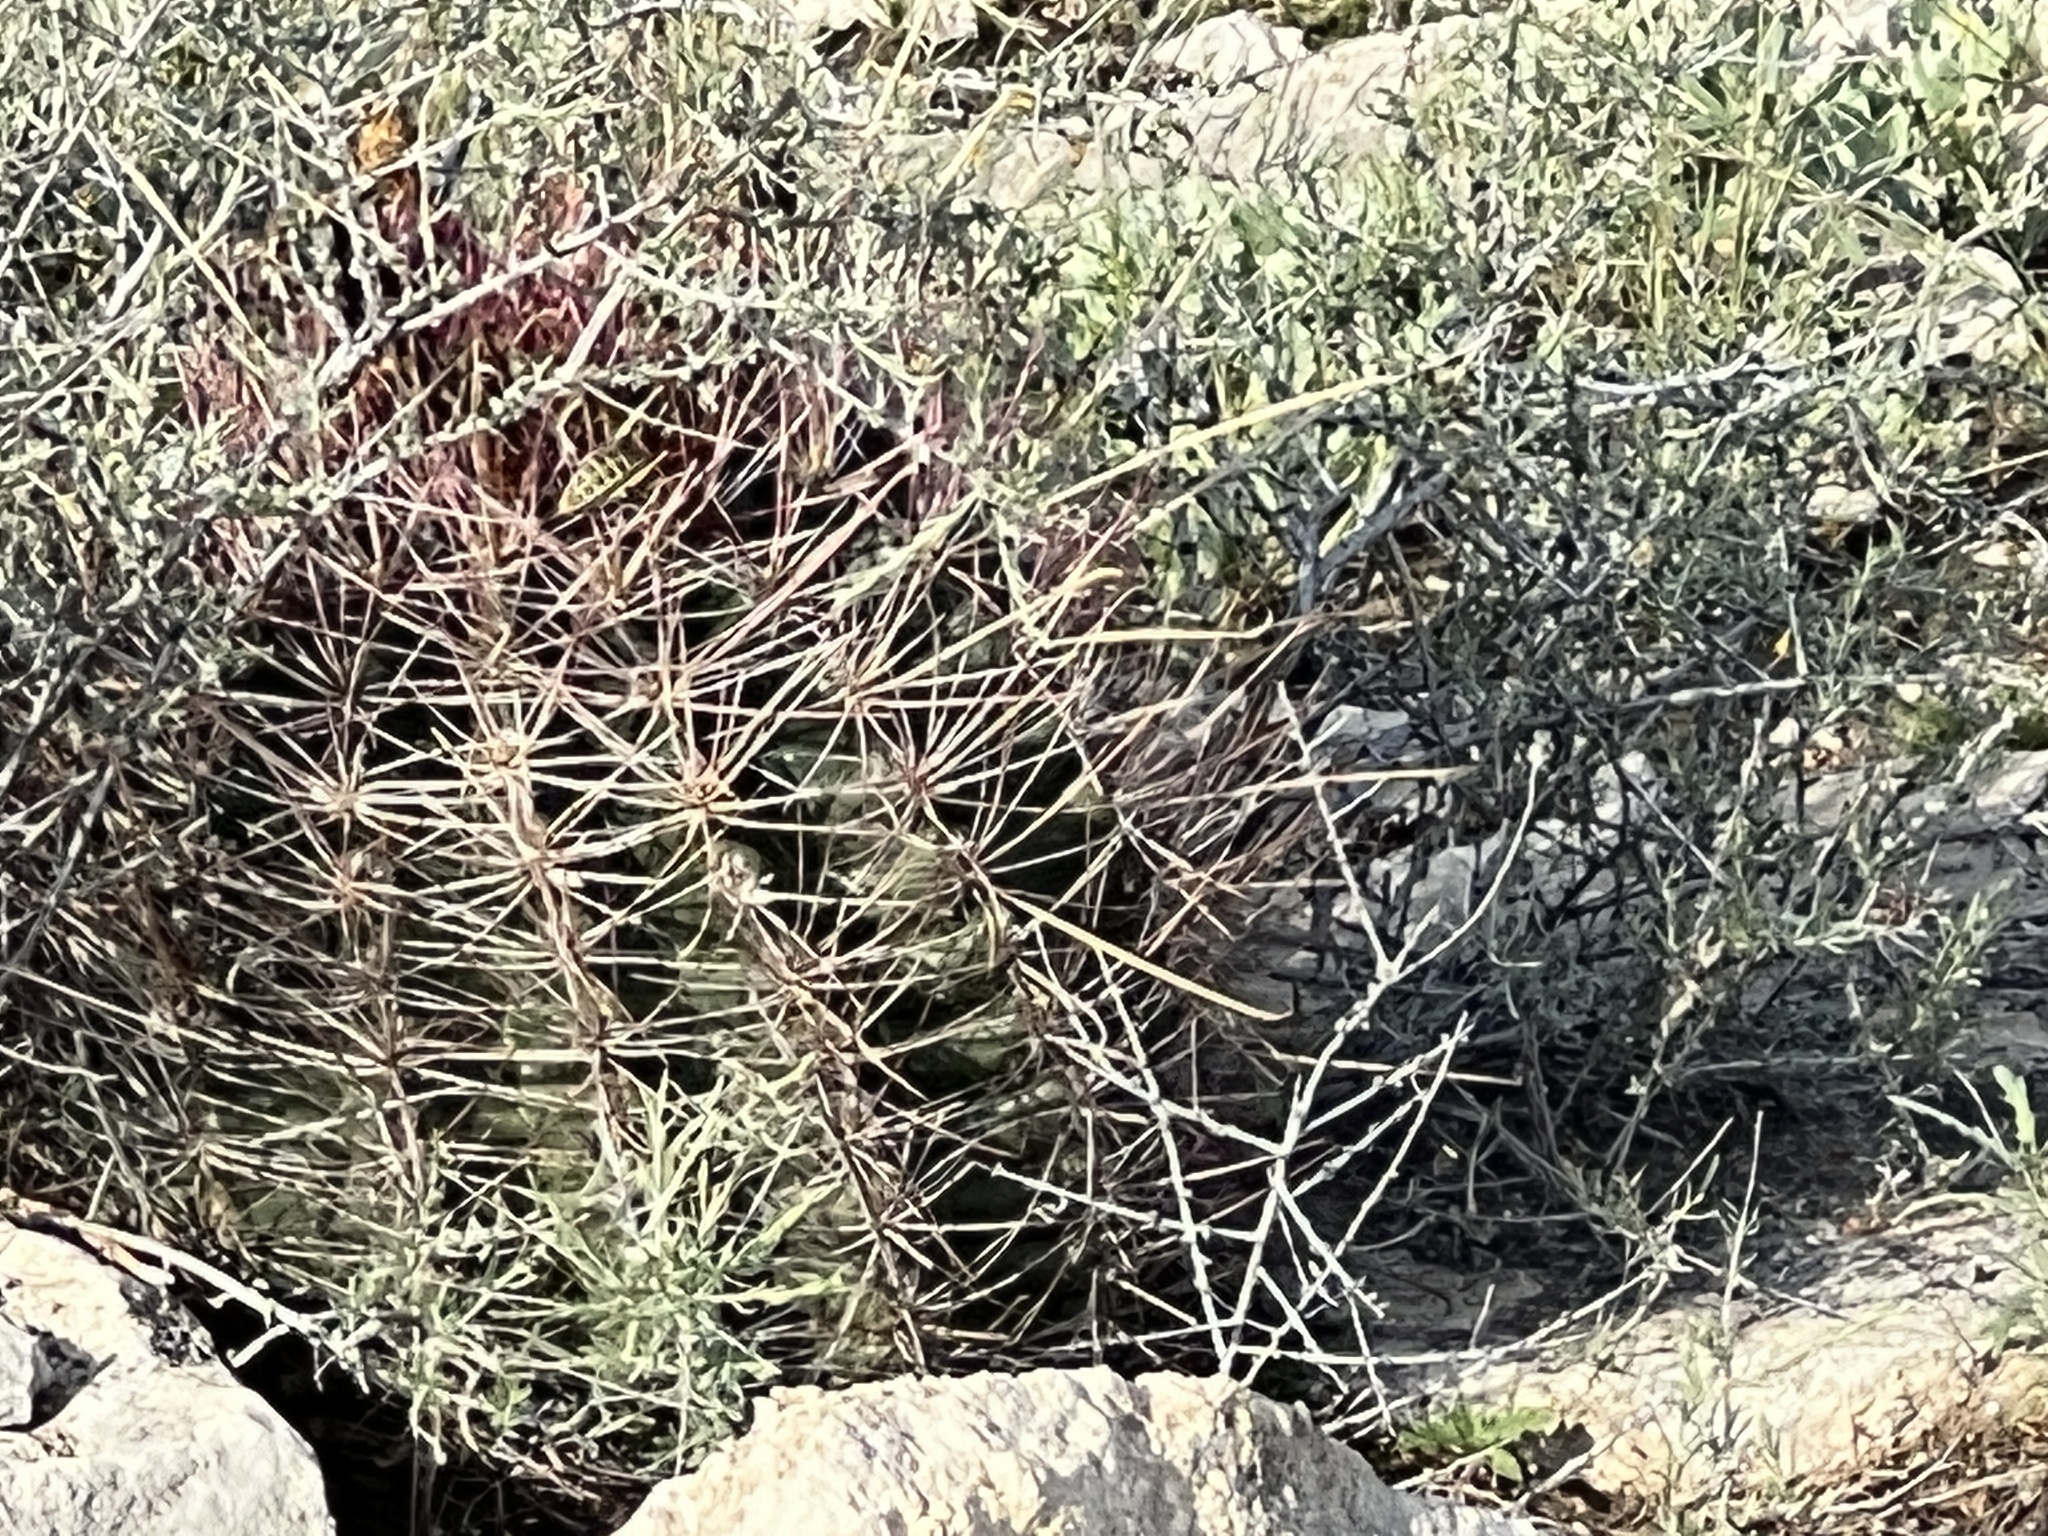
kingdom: Plantae
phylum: Tracheophyta
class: Magnoliopsida
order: Caryophyllales
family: Cactaceae
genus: Bisnaga
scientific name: Bisnaga hamatacantha
